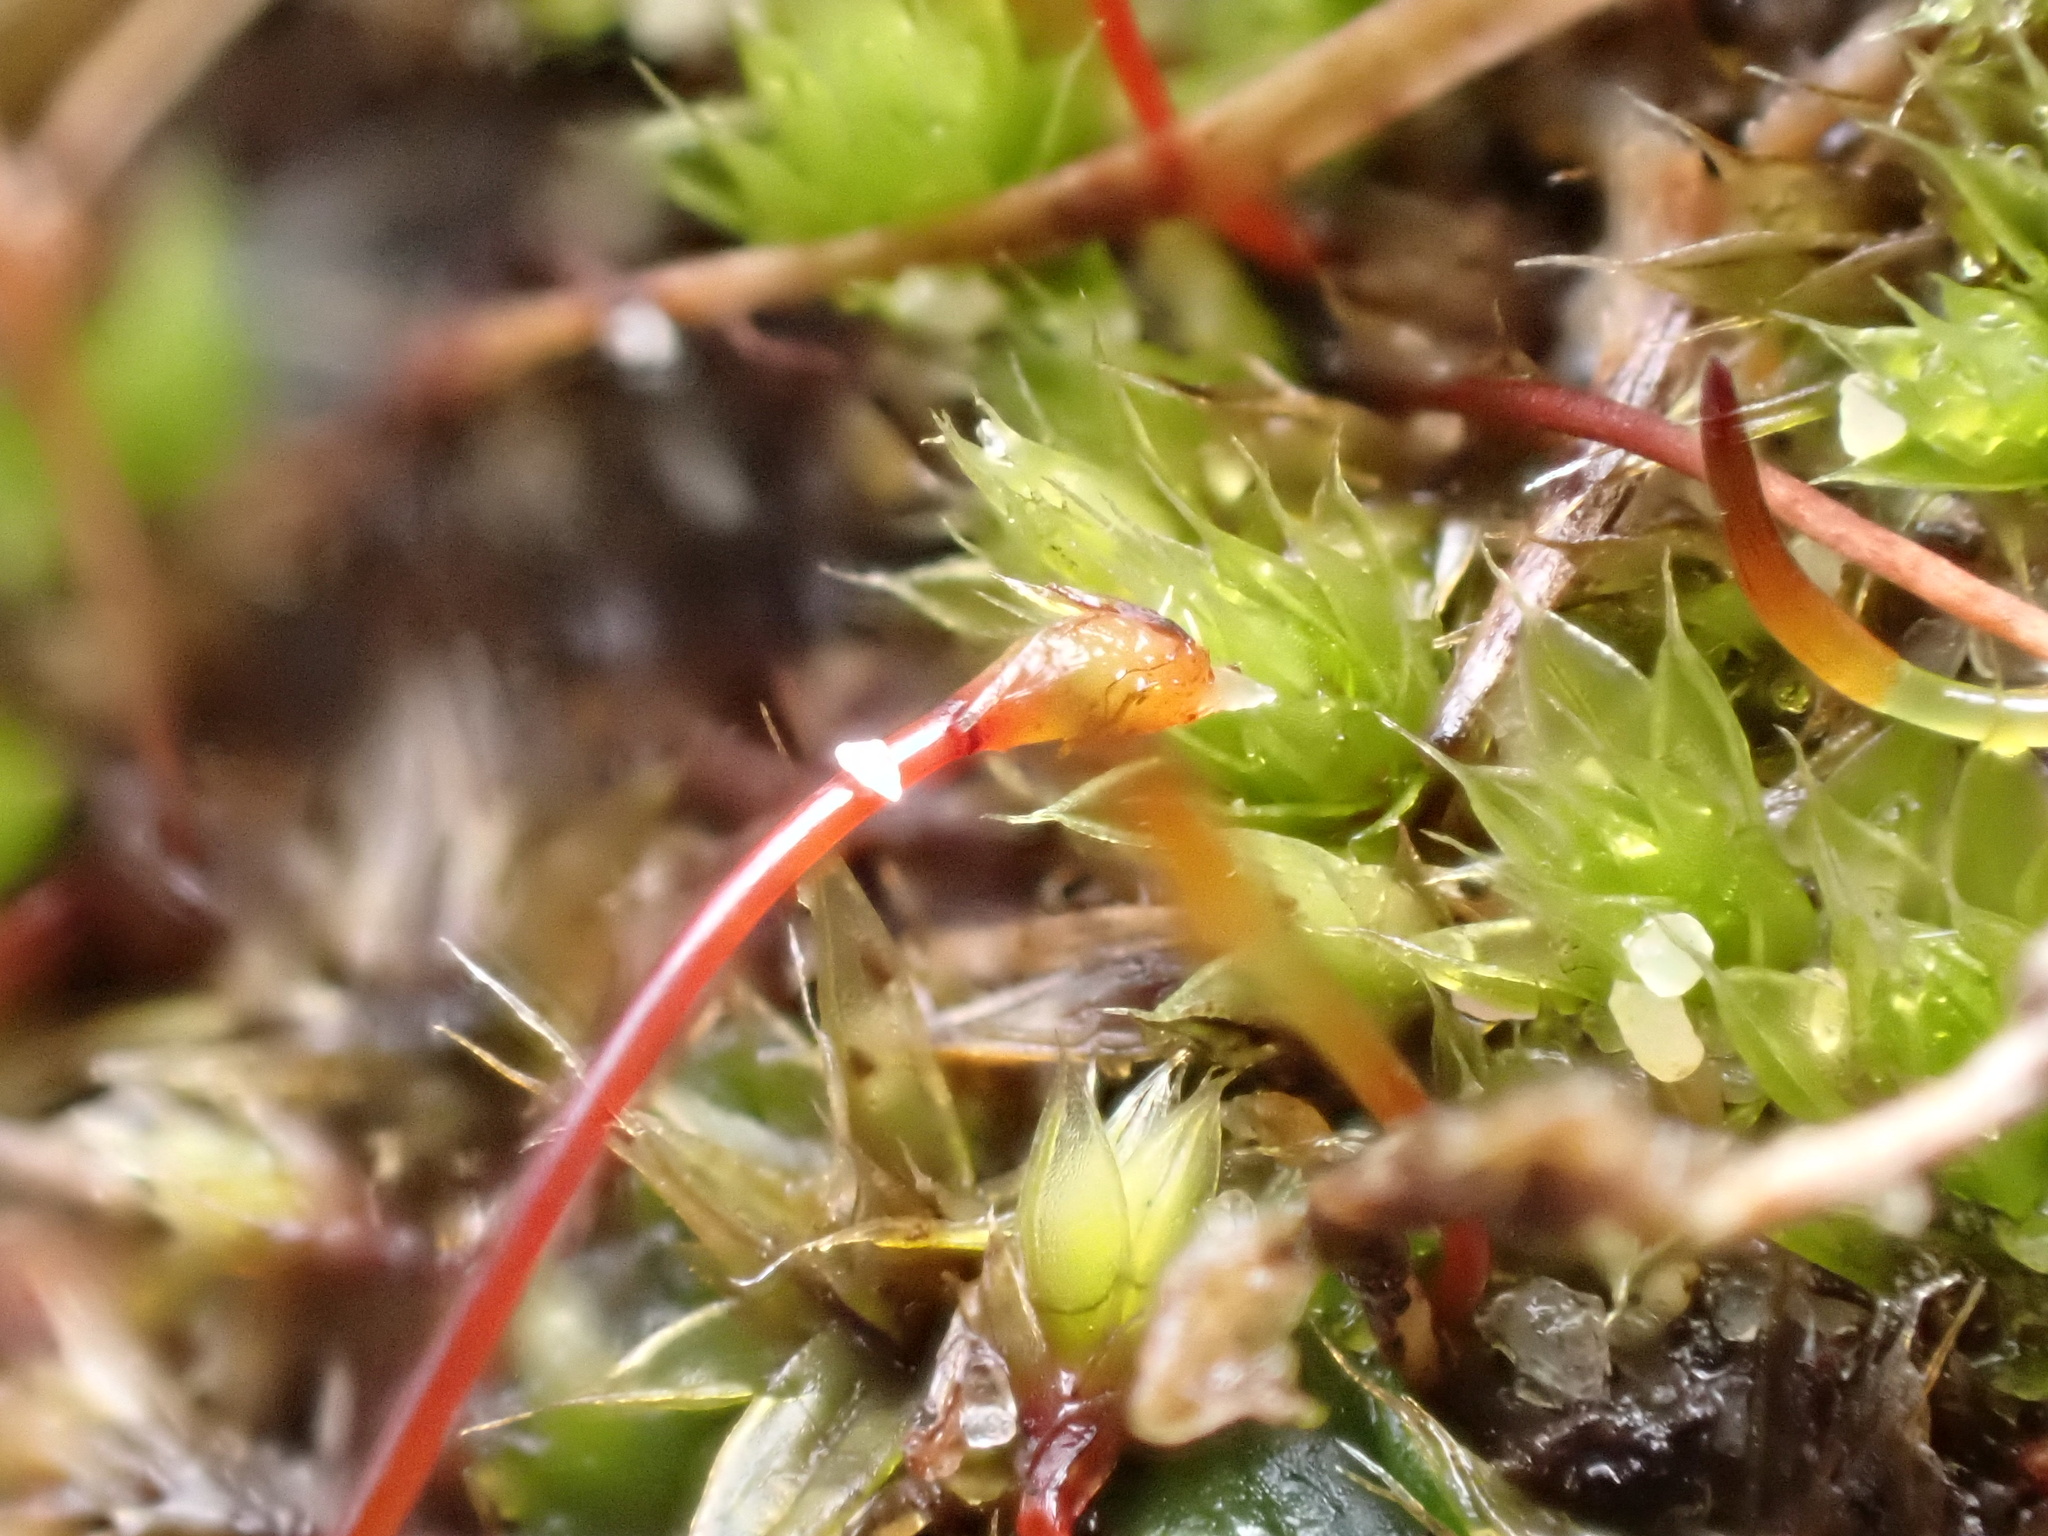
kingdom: Plantae
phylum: Bryophyta
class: Bryopsida
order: Bryales
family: Bryaceae
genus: Gemmabryum
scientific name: Gemmabryum caespiticium
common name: Handbell moss
